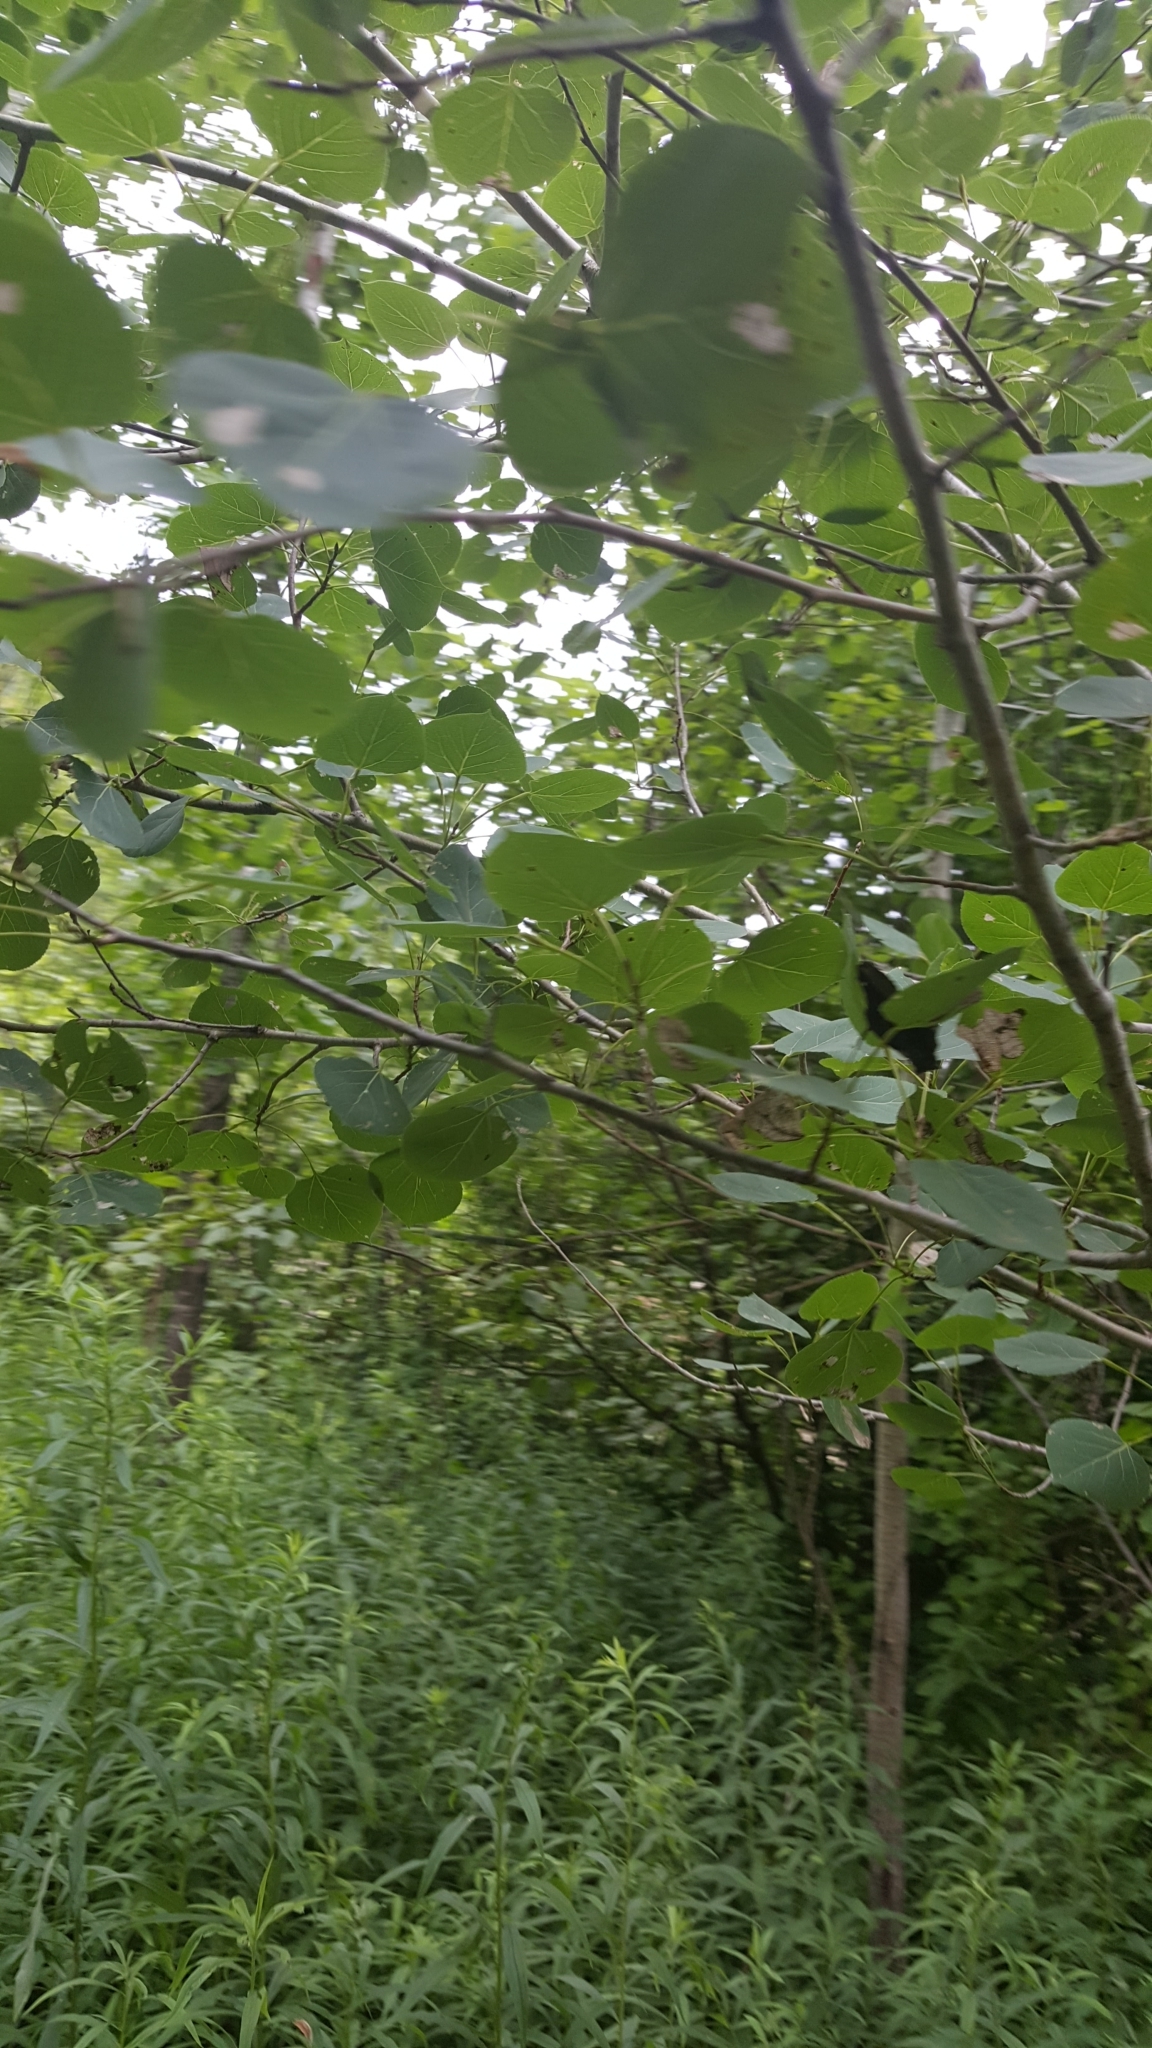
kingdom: Plantae
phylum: Tracheophyta
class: Magnoliopsida
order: Malpighiales
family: Salicaceae
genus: Populus
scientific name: Populus tremuloides
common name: Quaking aspen
